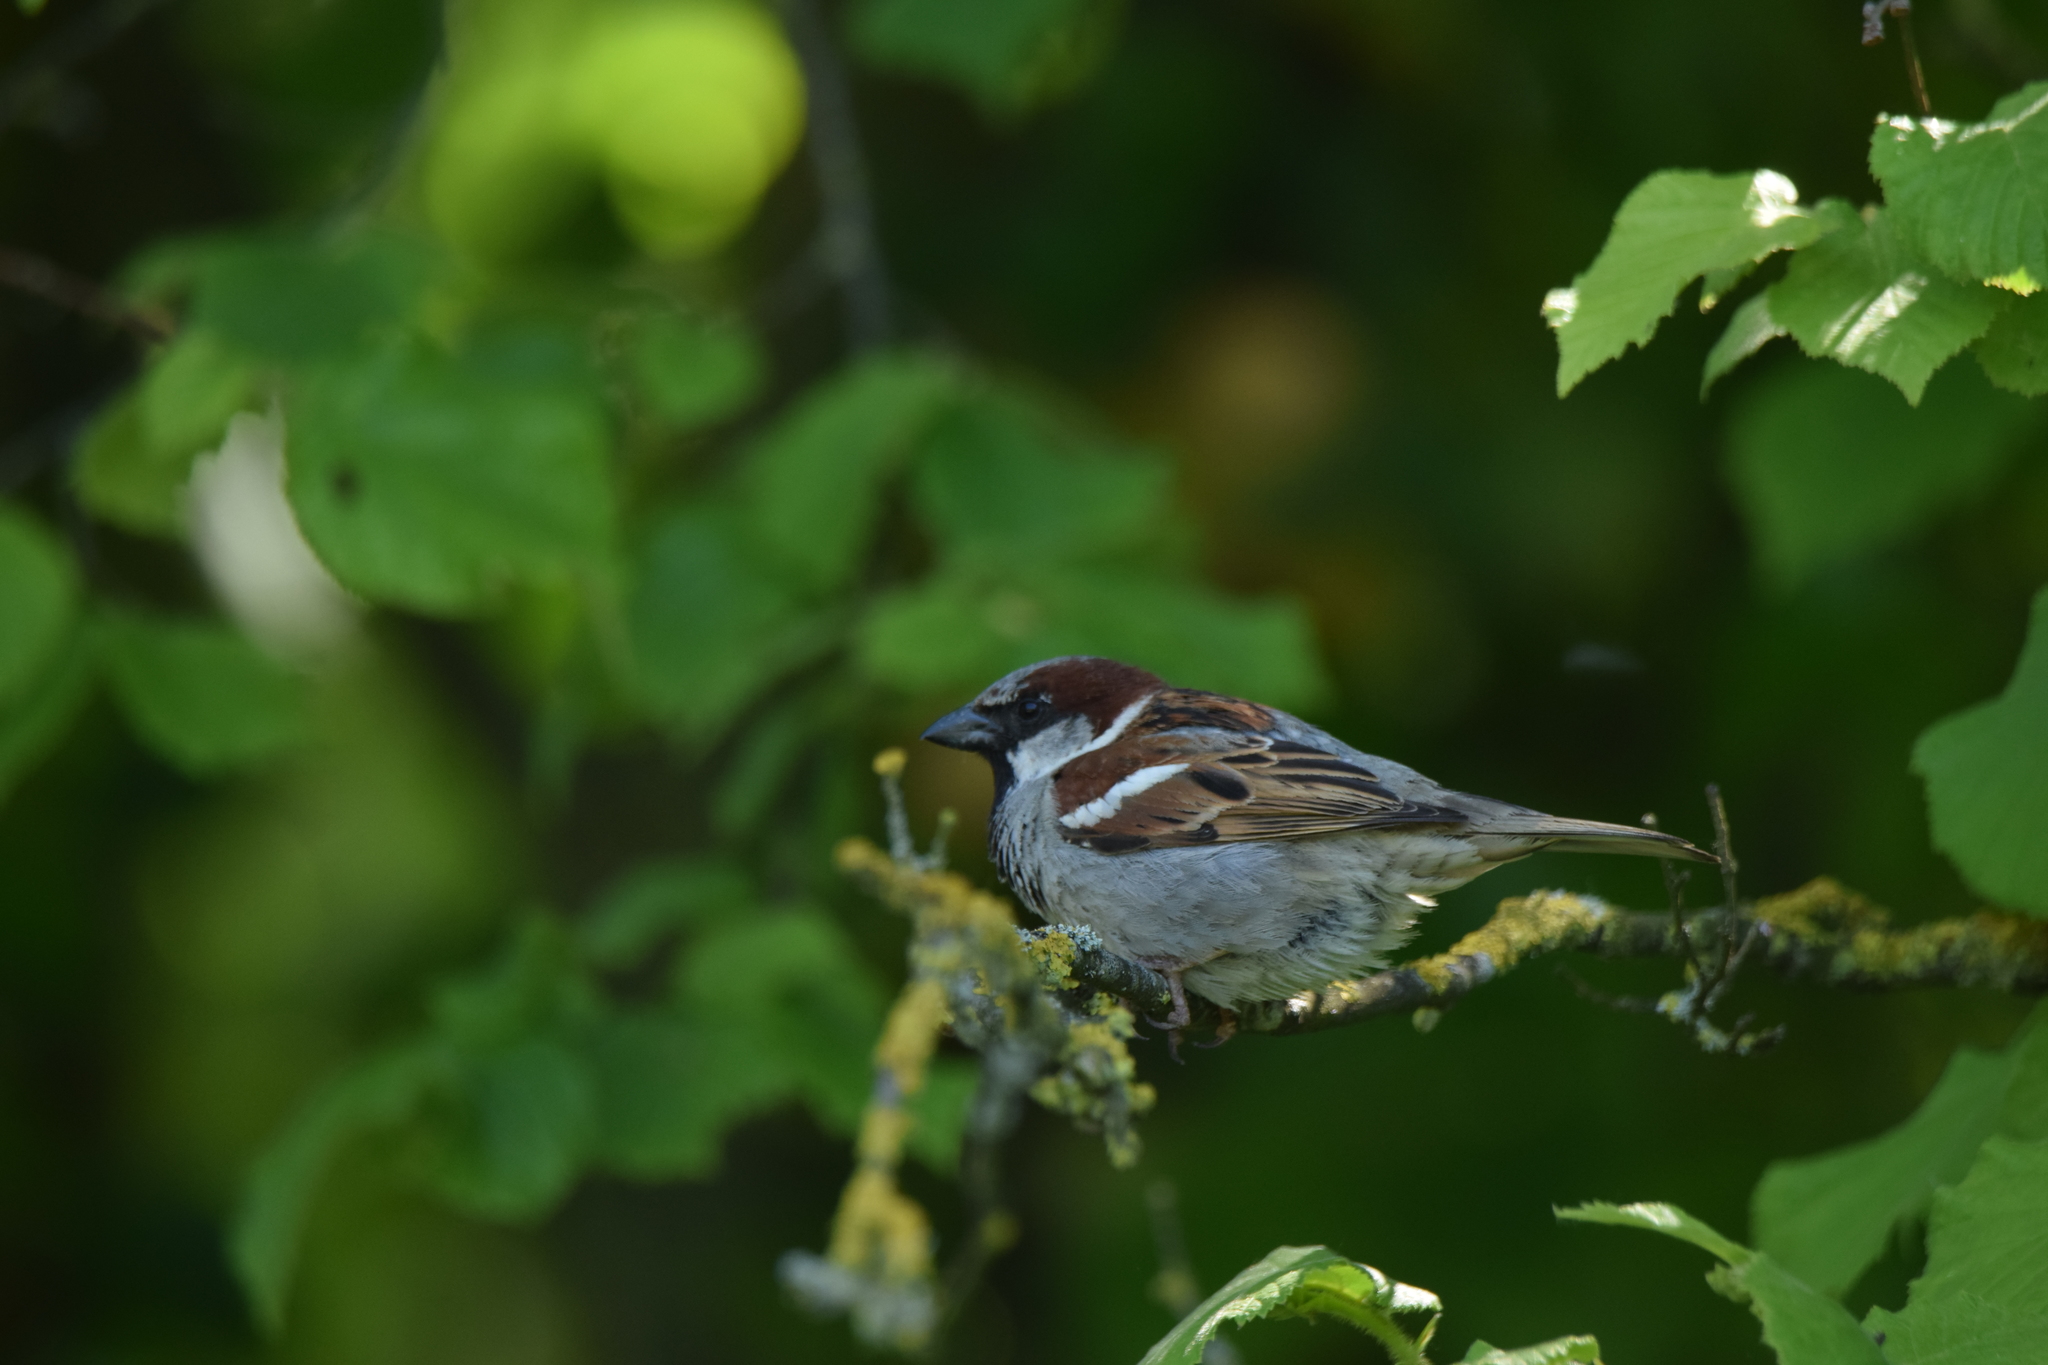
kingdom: Animalia
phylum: Chordata
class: Aves
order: Passeriformes
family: Passeridae
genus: Passer
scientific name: Passer domesticus
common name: House sparrow
